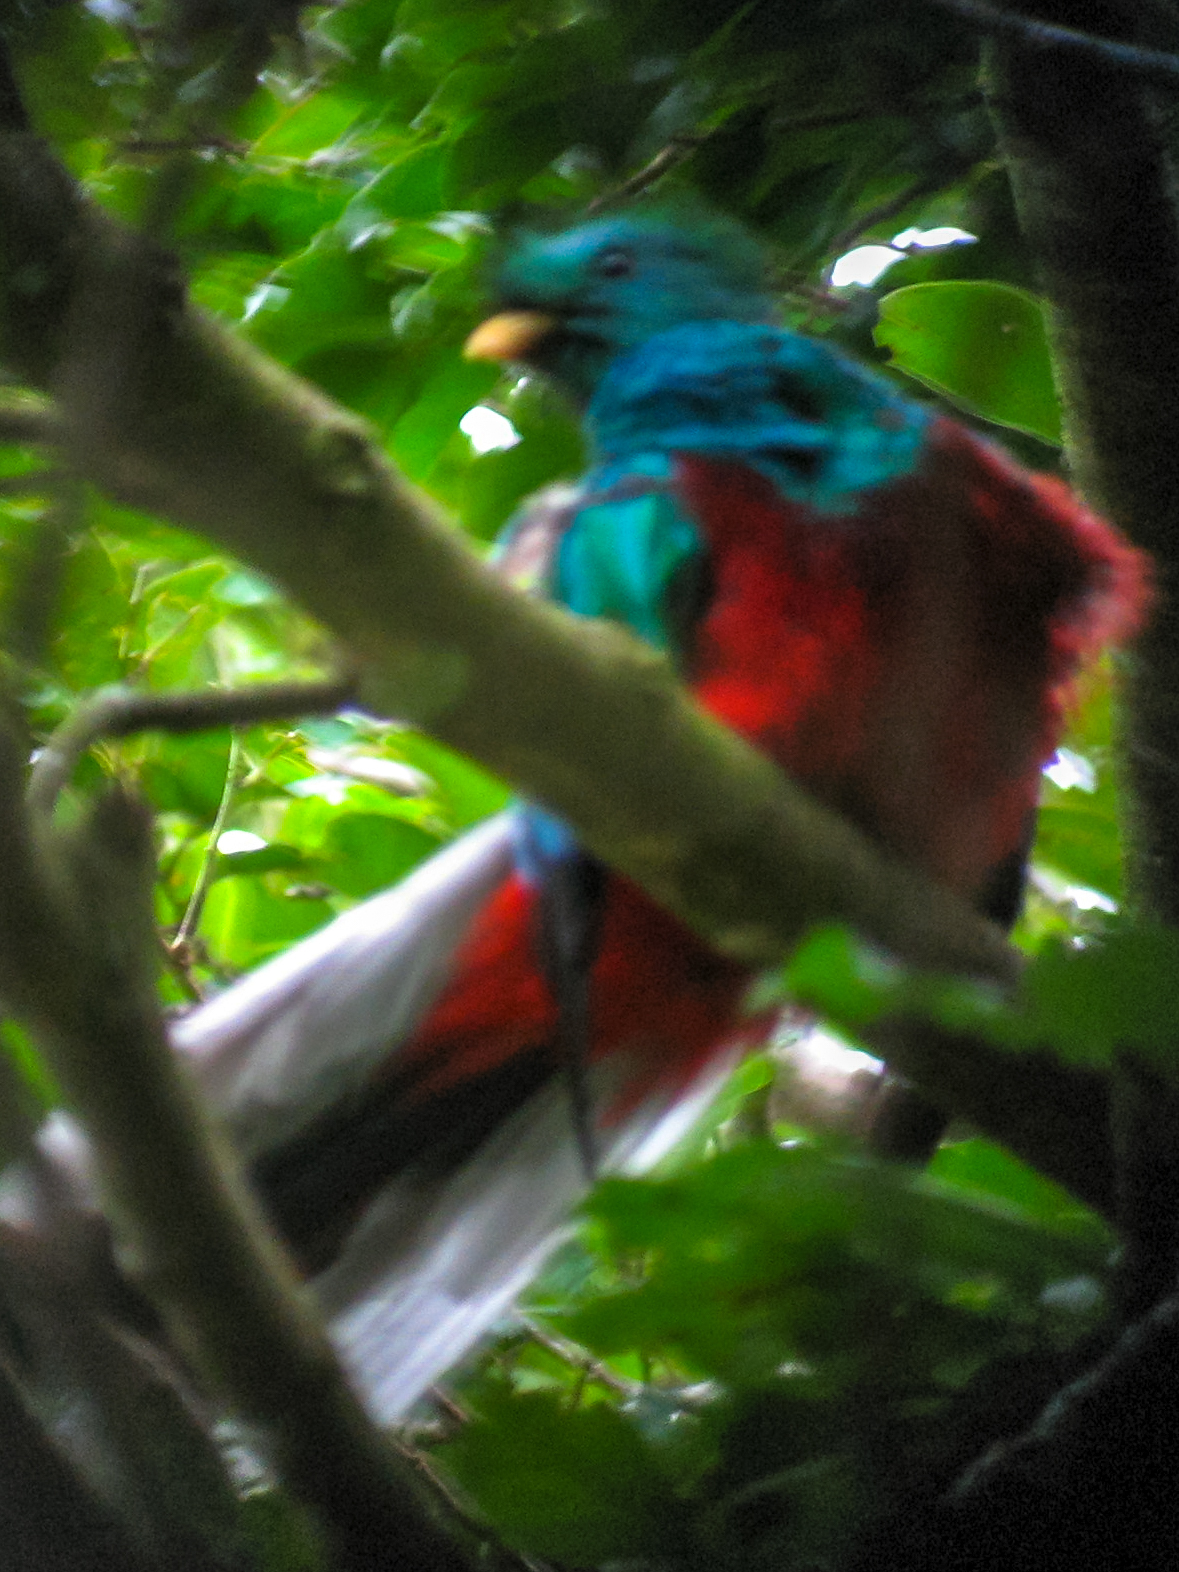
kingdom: Animalia
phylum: Chordata
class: Aves
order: Trogoniformes
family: Trogonidae
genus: Pharomachrus
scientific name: Pharomachrus mocinno
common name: Resplendent quetzal
